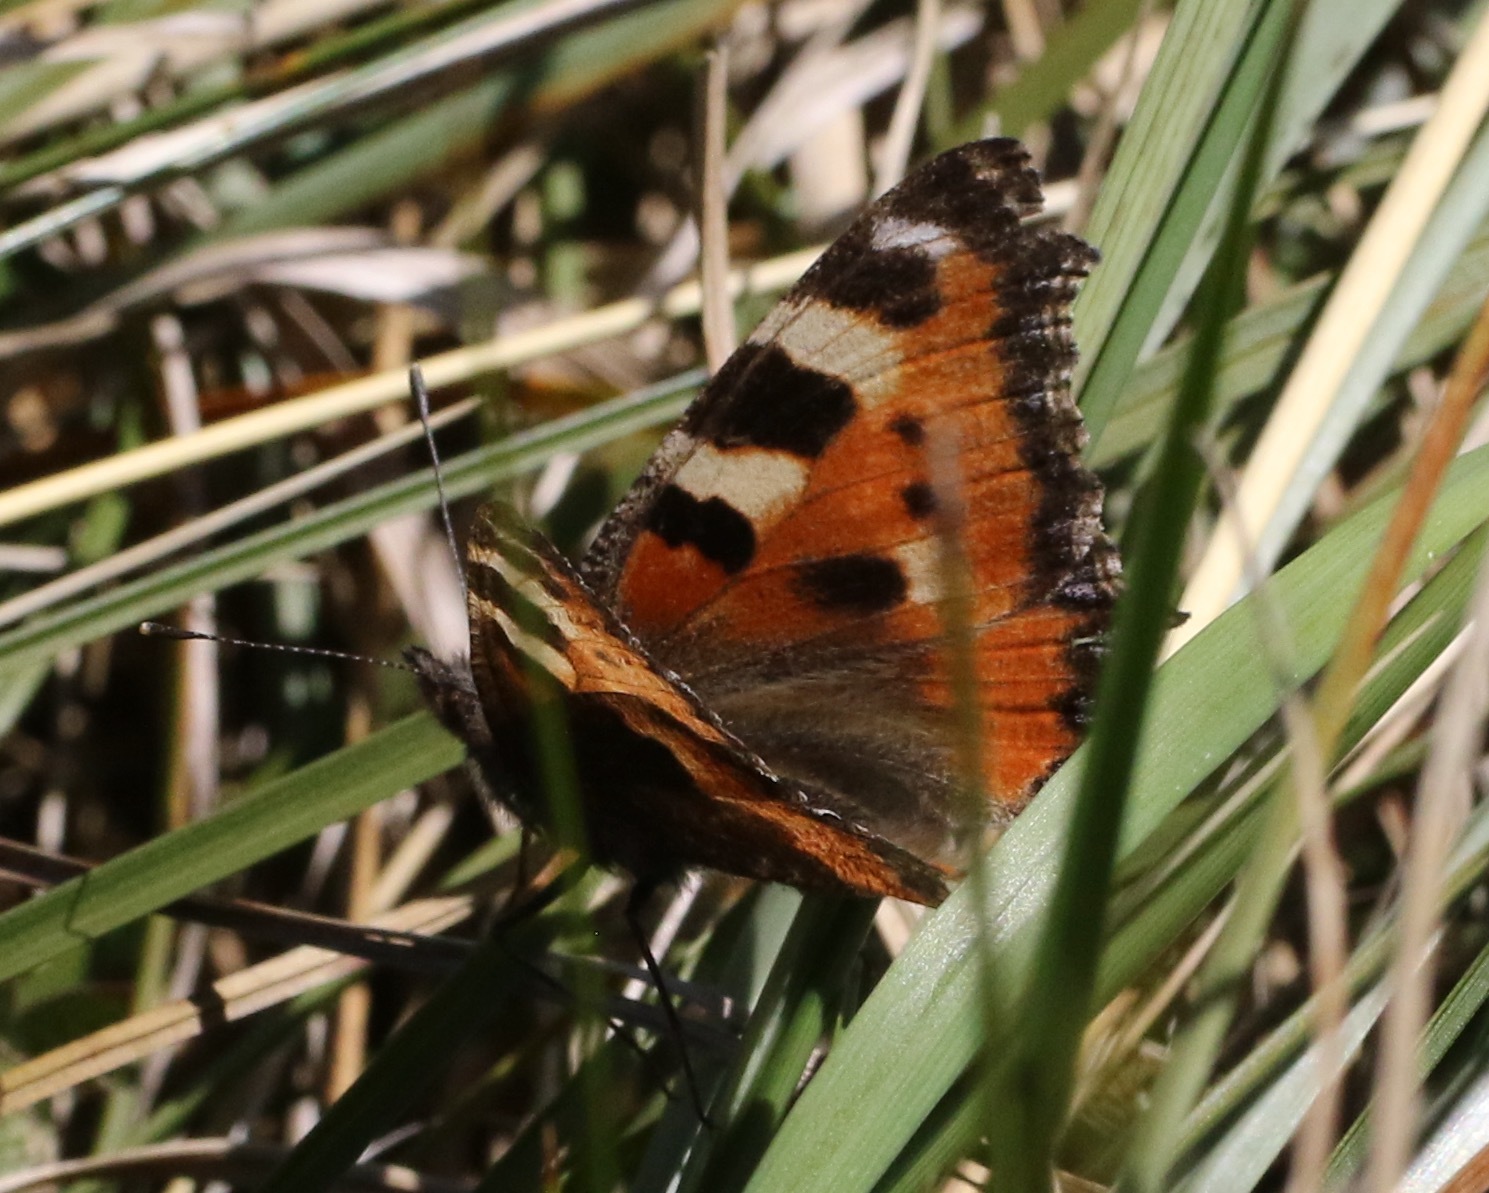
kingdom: Animalia
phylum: Arthropoda
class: Insecta
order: Lepidoptera
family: Nymphalidae
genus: Aglais
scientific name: Aglais urticae
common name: Small tortoiseshell
